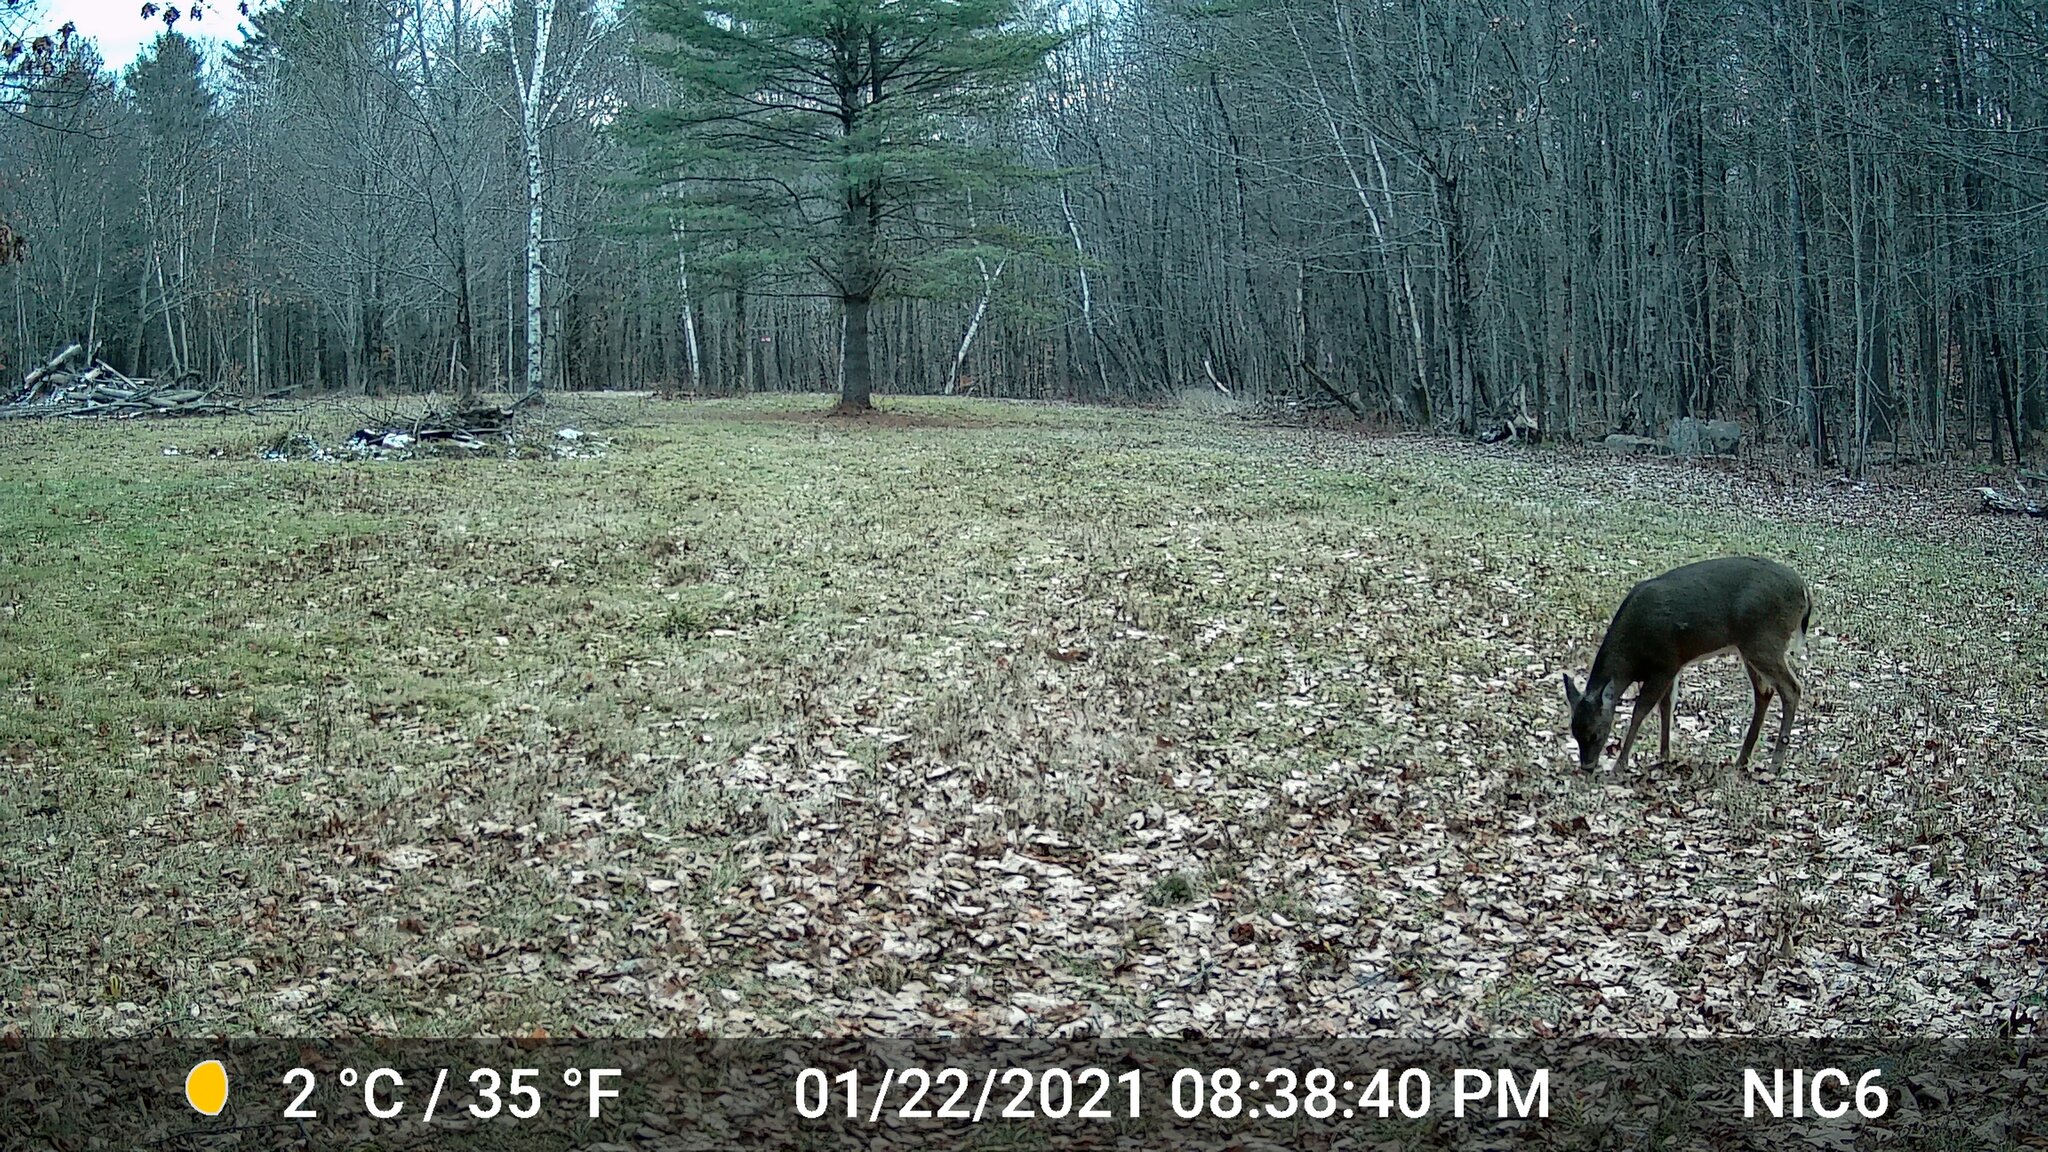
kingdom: Animalia
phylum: Chordata
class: Mammalia
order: Artiodactyla
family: Cervidae
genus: Odocoileus
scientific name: Odocoileus virginianus
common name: White-tailed deer
